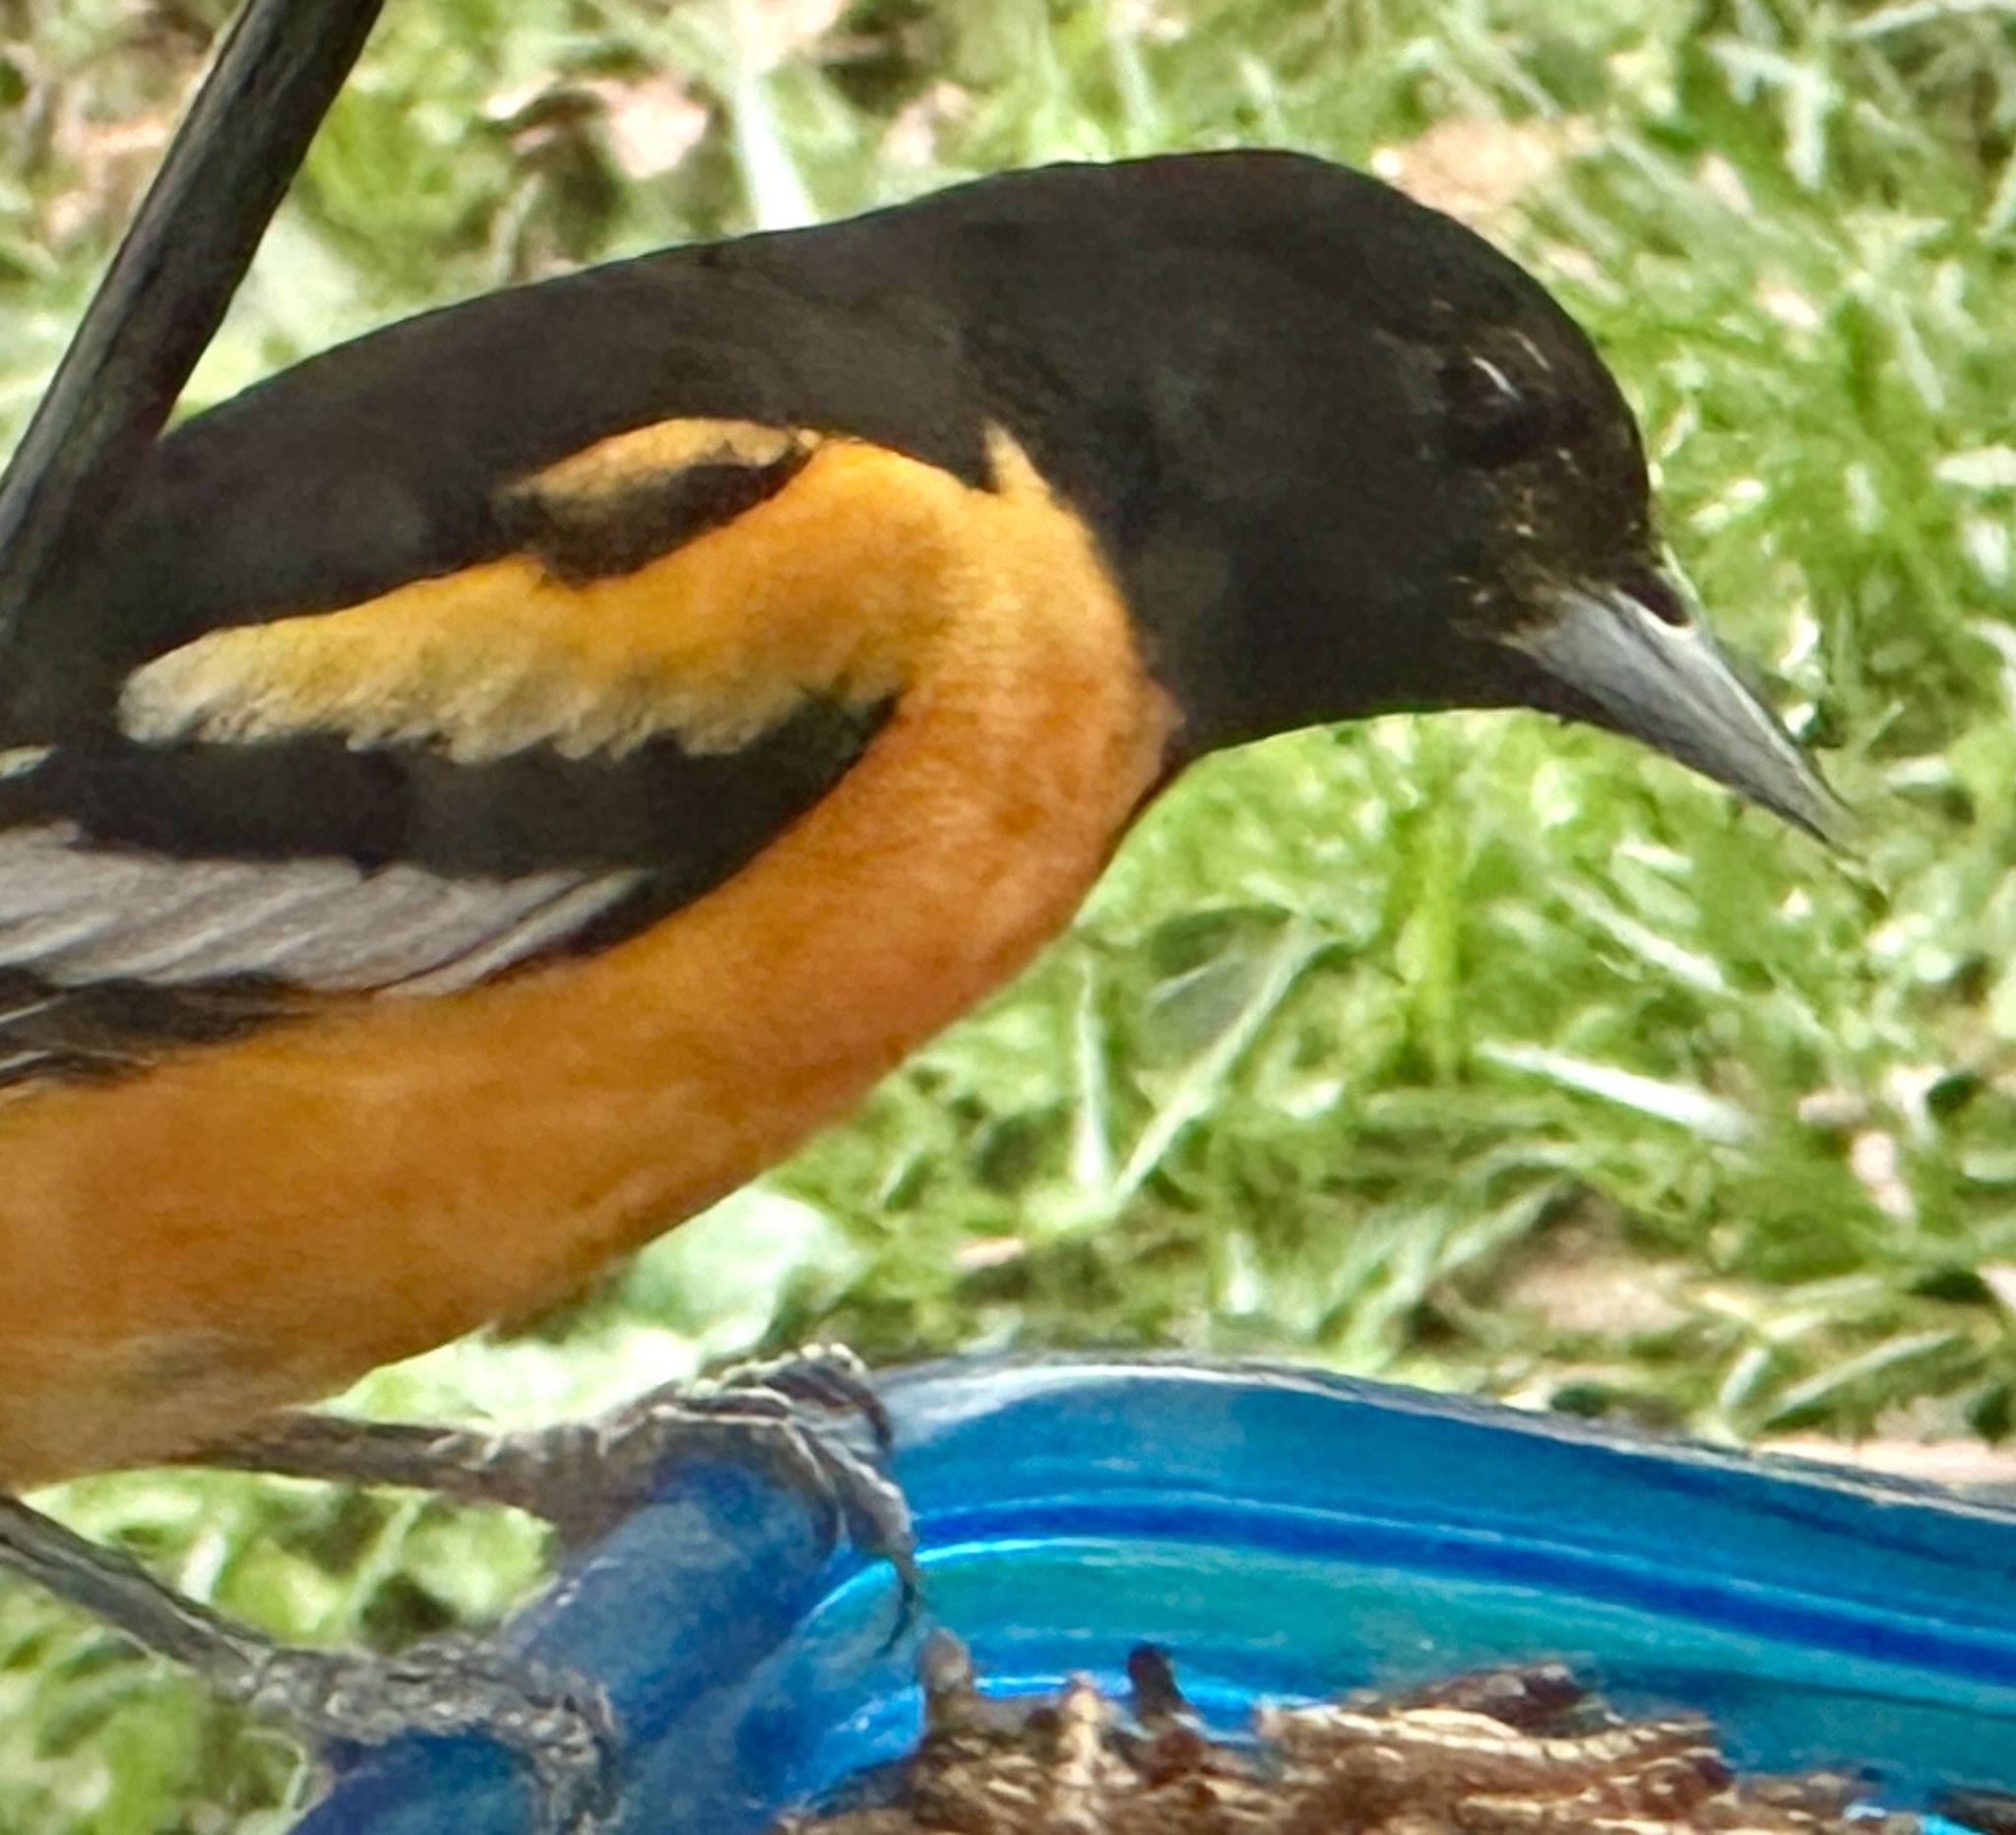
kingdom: Animalia
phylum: Chordata
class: Aves
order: Passeriformes
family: Icteridae
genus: Icterus
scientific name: Icterus galbula
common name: Baltimore oriole
